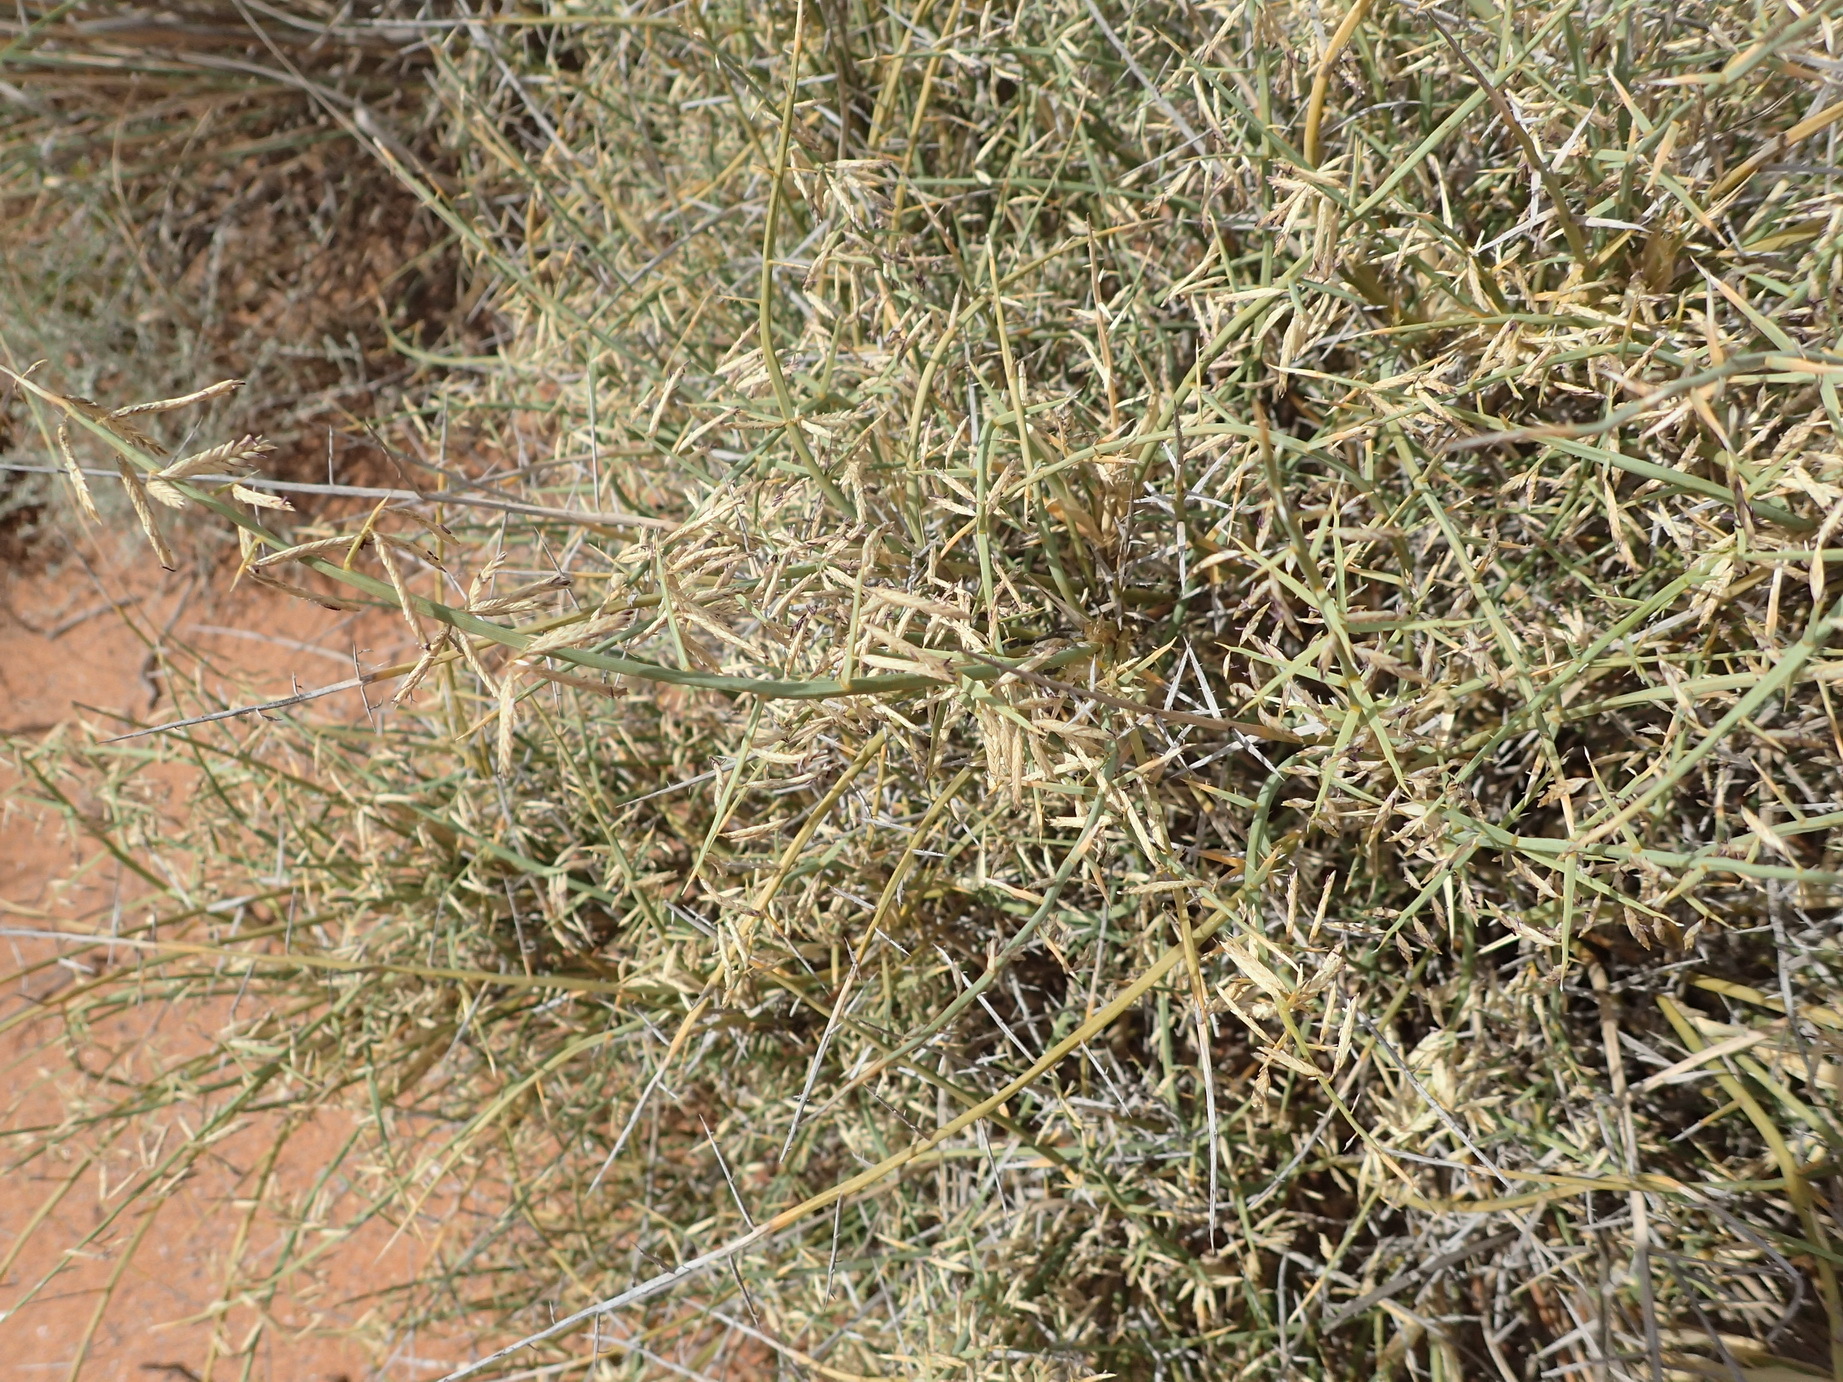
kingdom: Plantae
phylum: Tracheophyta
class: Liliopsida
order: Poales
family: Poaceae
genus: Cladoraphis
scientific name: Cladoraphis spinosa
